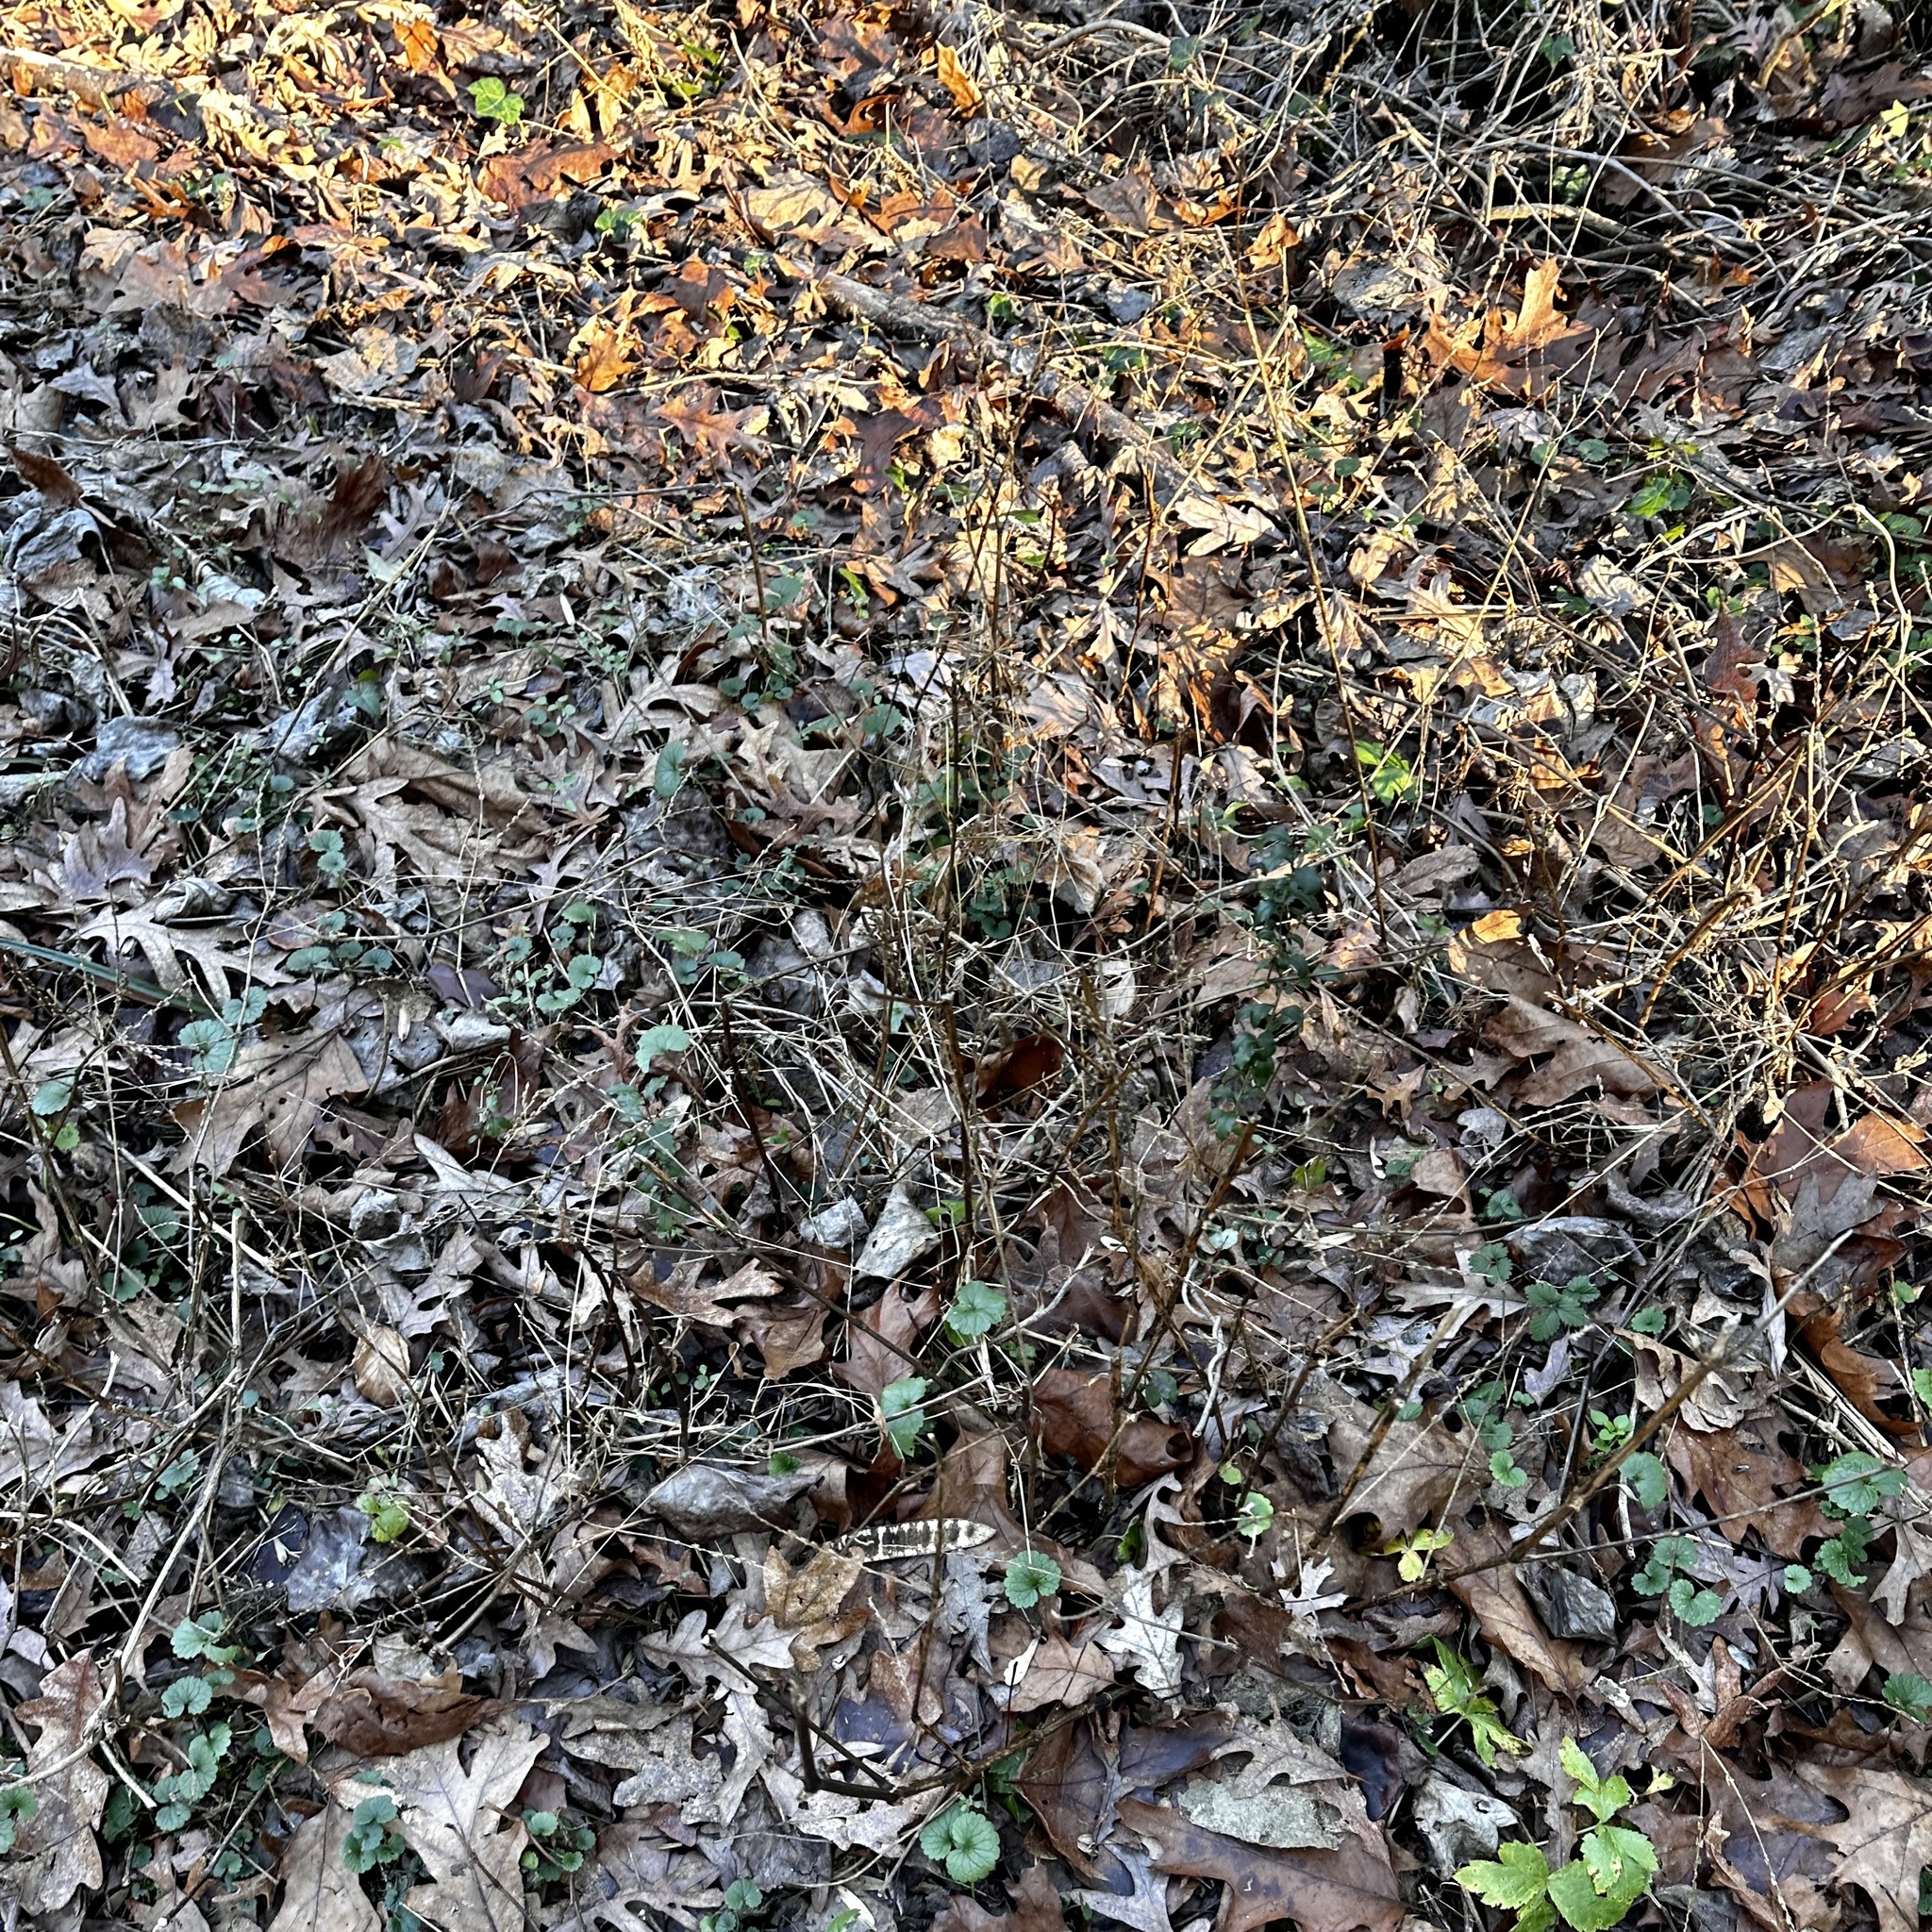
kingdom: Plantae
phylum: Tracheophyta
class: Magnoliopsida
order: Caryophyllales
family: Amaranthaceae
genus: Achyranthes
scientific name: Achyranthes bidentata
